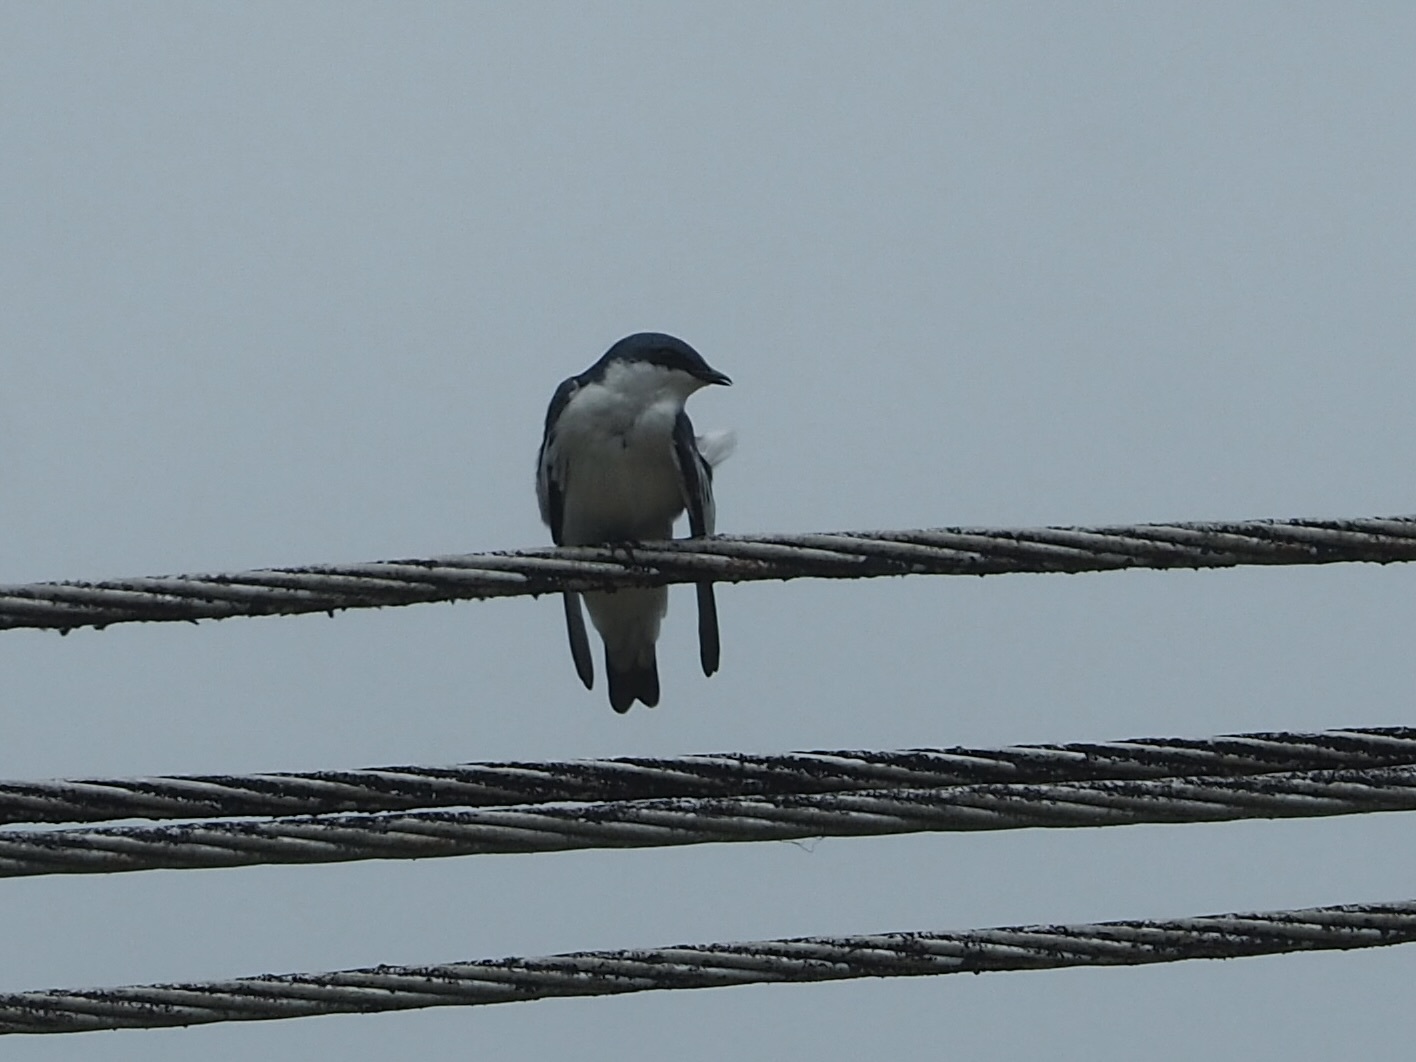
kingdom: Animalia
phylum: Chordata
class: Aves
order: Passeriformes
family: Hirundinidae
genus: Tachycineta
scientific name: Tachycineta albiventer
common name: White-winged swallow
